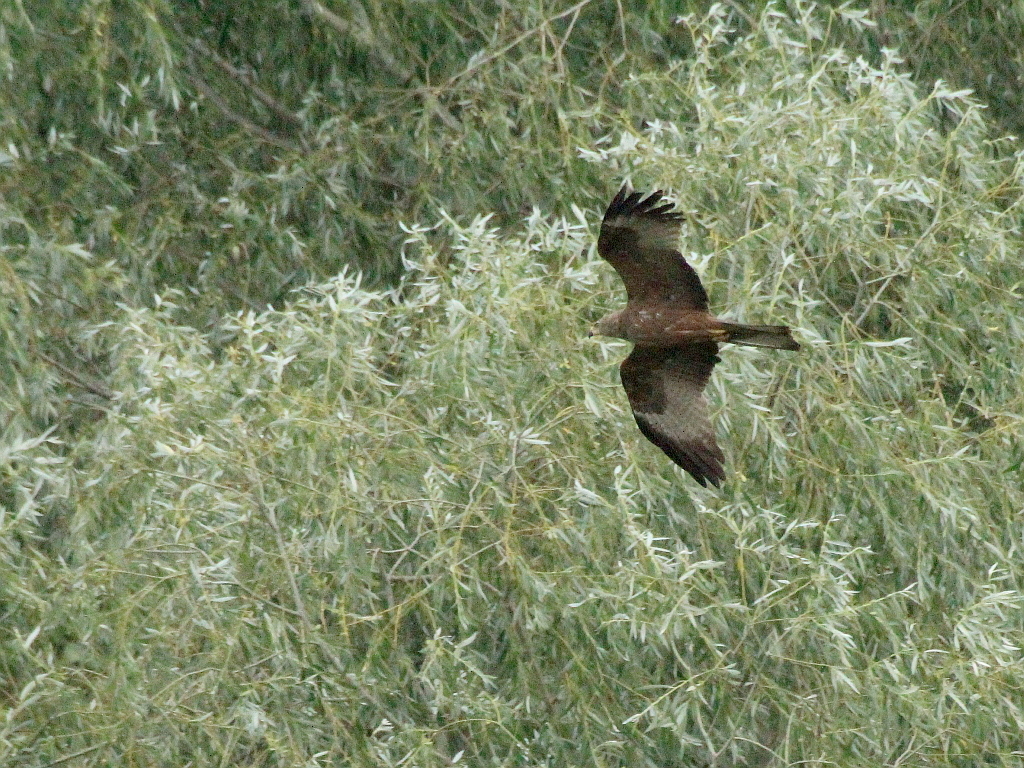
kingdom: Animalia
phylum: Chordata
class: Aves
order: Accipitriformes
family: Accipitridae
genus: Milvus
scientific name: Milvus migrans
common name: Black kite
